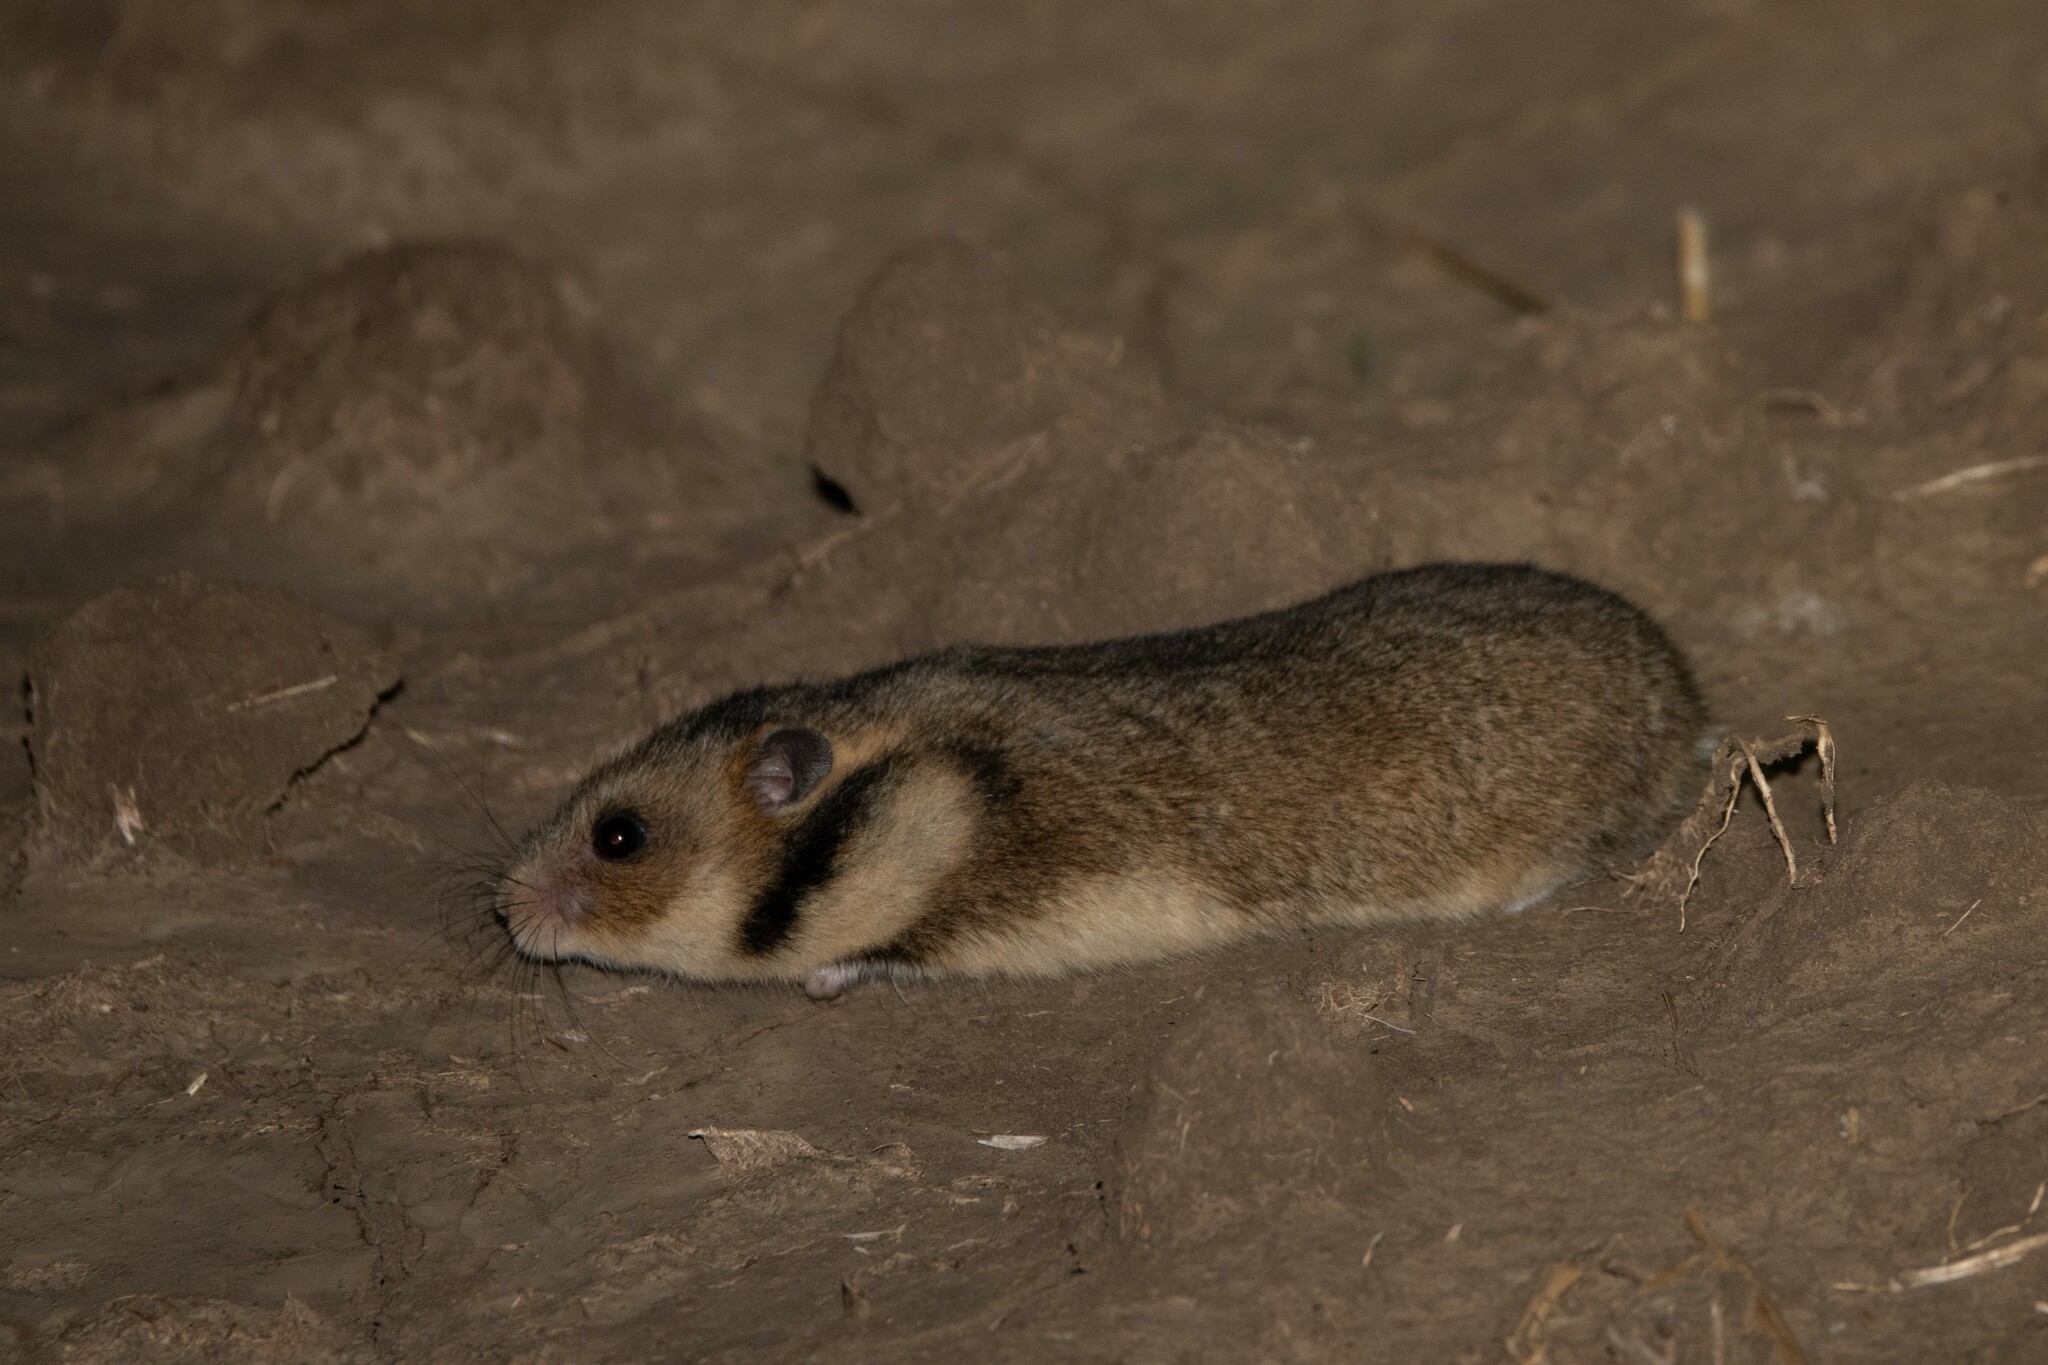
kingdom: Animalia
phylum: Chordata
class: Mammalia
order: Rodentia
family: Cricetidae
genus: Mesocricetus
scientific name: Mesocricetus newtoni
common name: Romanian hamster
